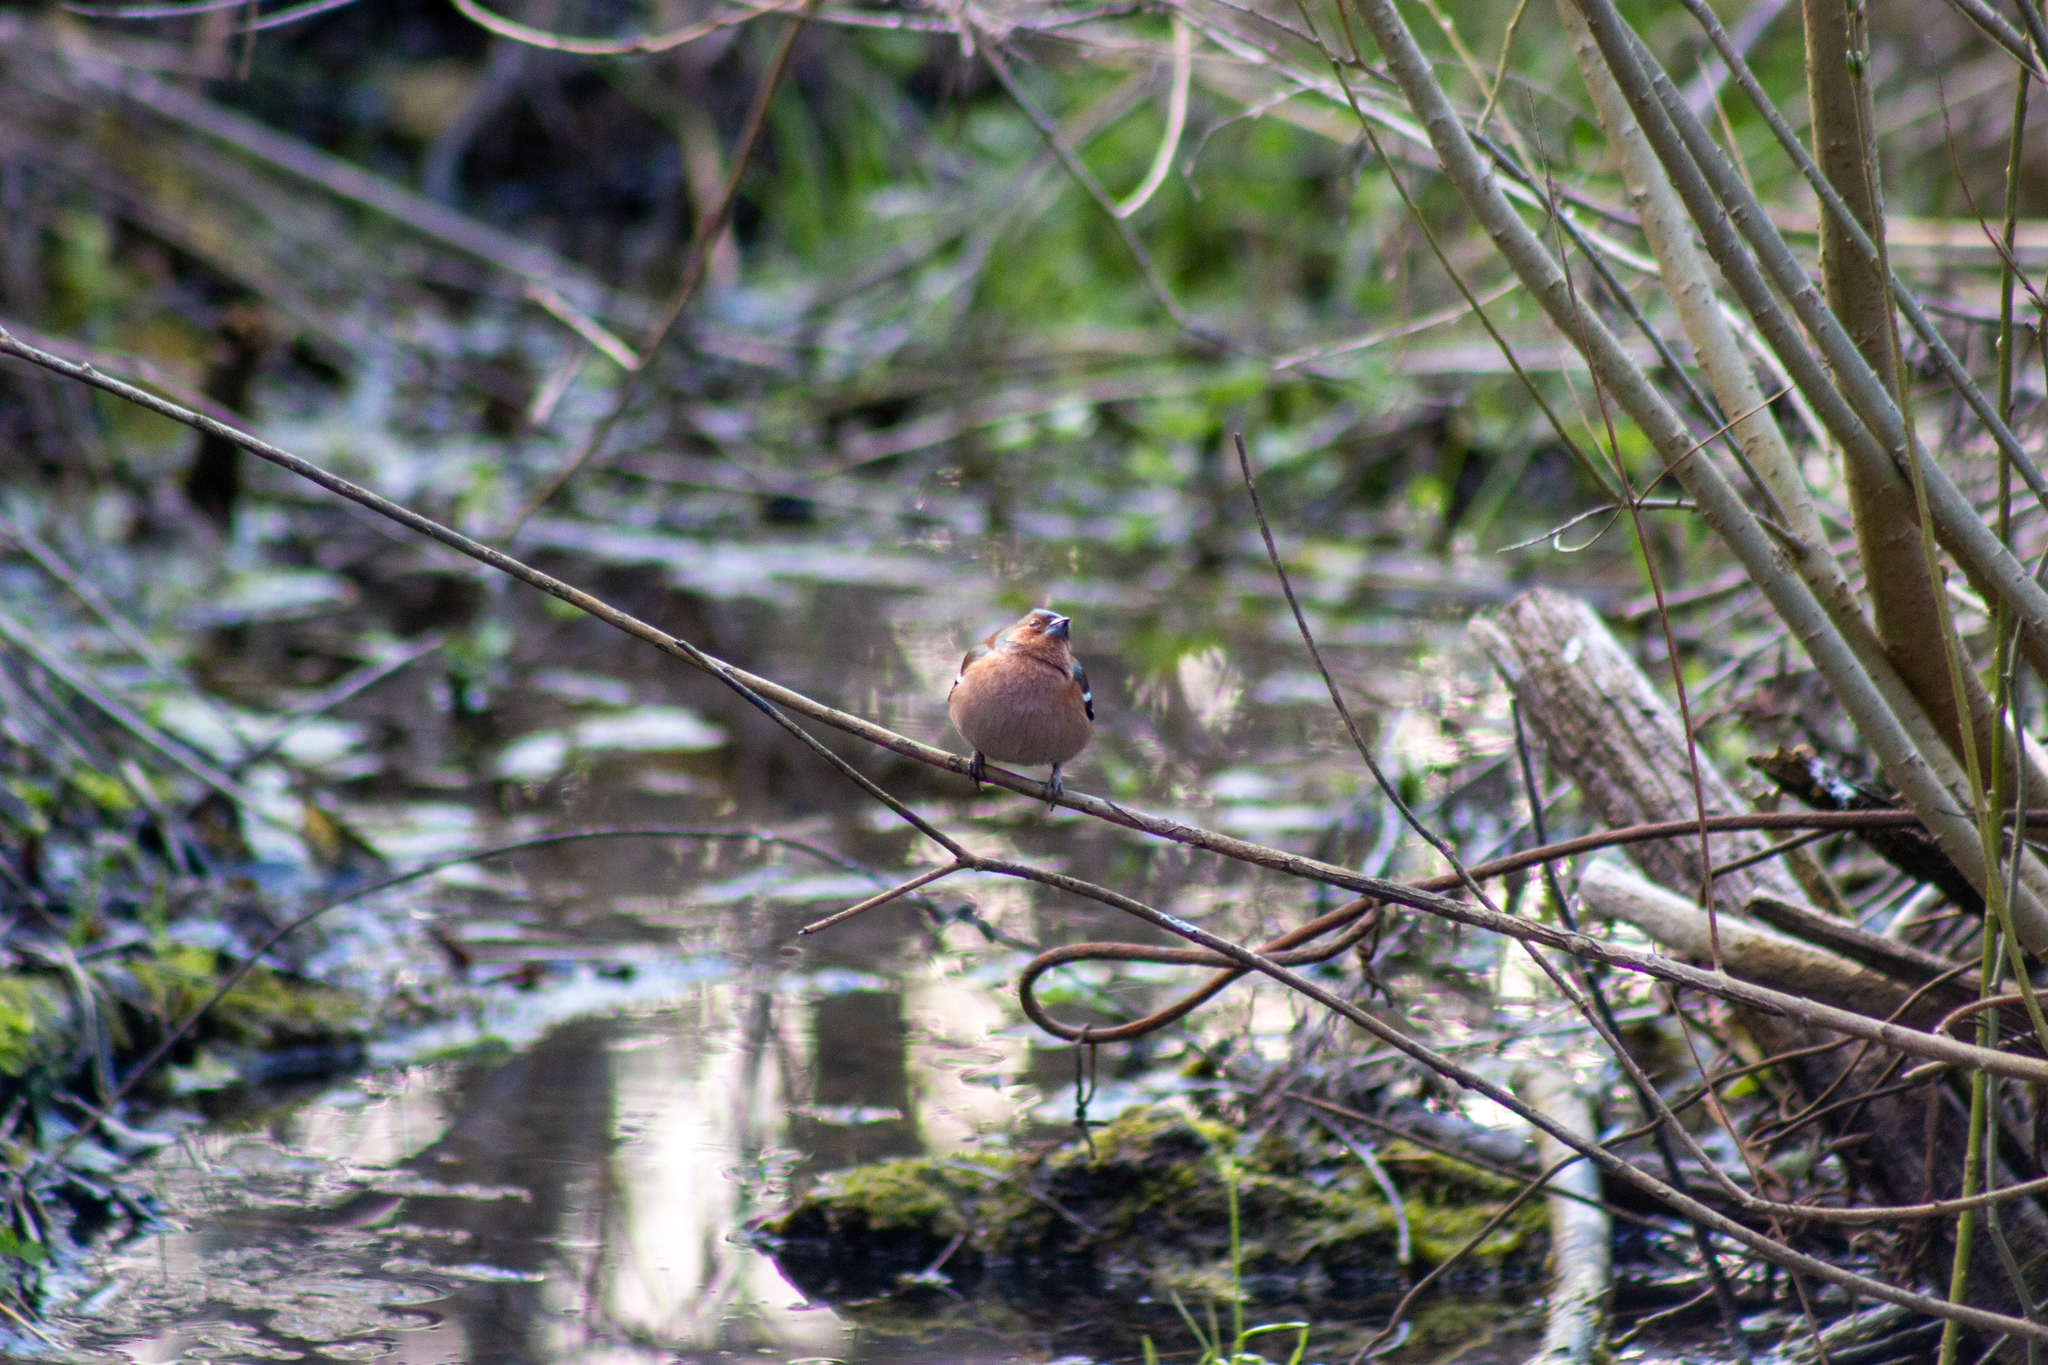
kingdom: Animalia
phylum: Chordata
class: Aves
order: Passeriformes
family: Fringillidae
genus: Fringilla
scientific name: Fringilla coelebs
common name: Common chaffinch
